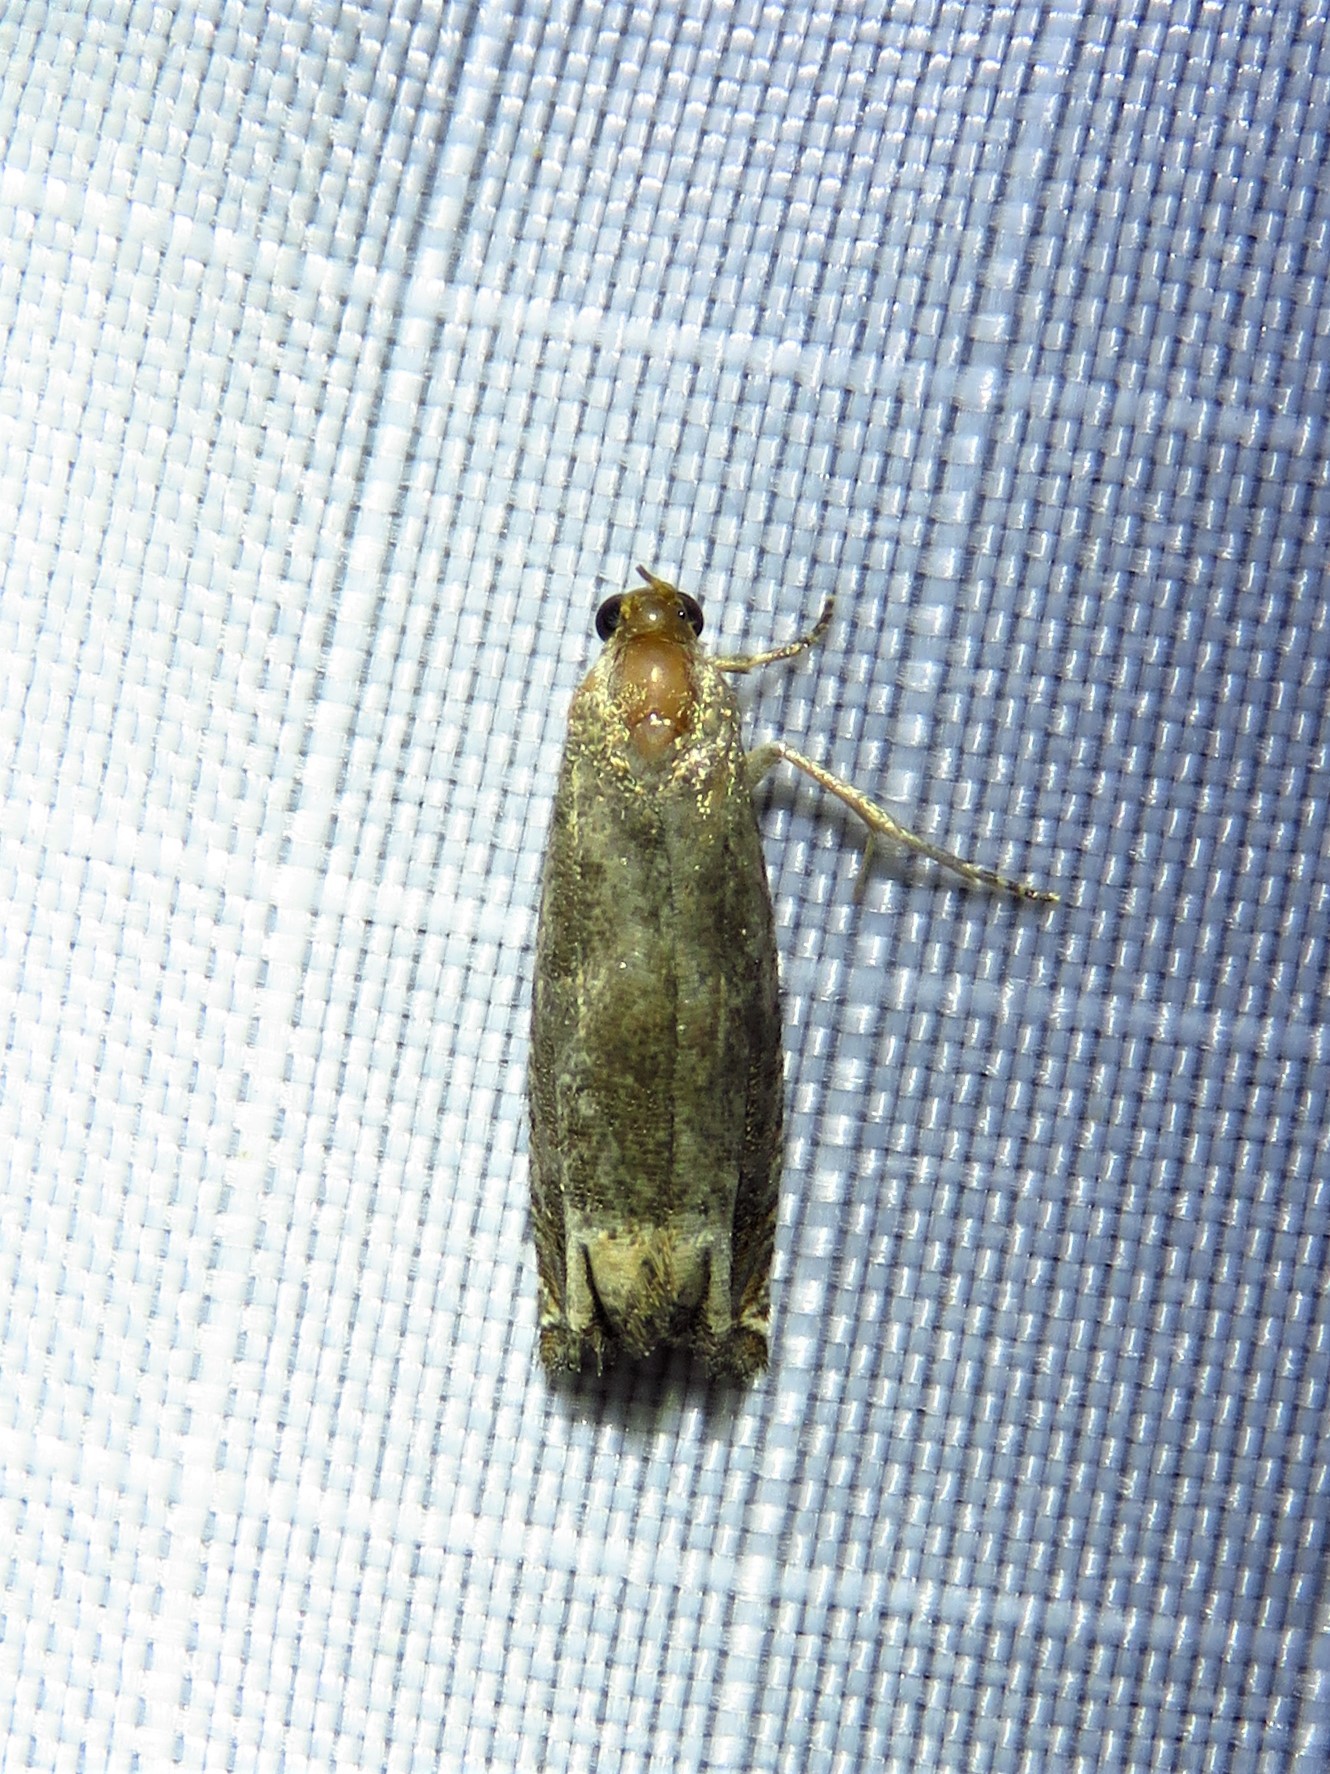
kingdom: Animalia
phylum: Arthropoda
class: Insecta
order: Lepidoptera
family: Tortricidae
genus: Epiblema
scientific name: Epiblema strenuana
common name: Ragweed borer moth
